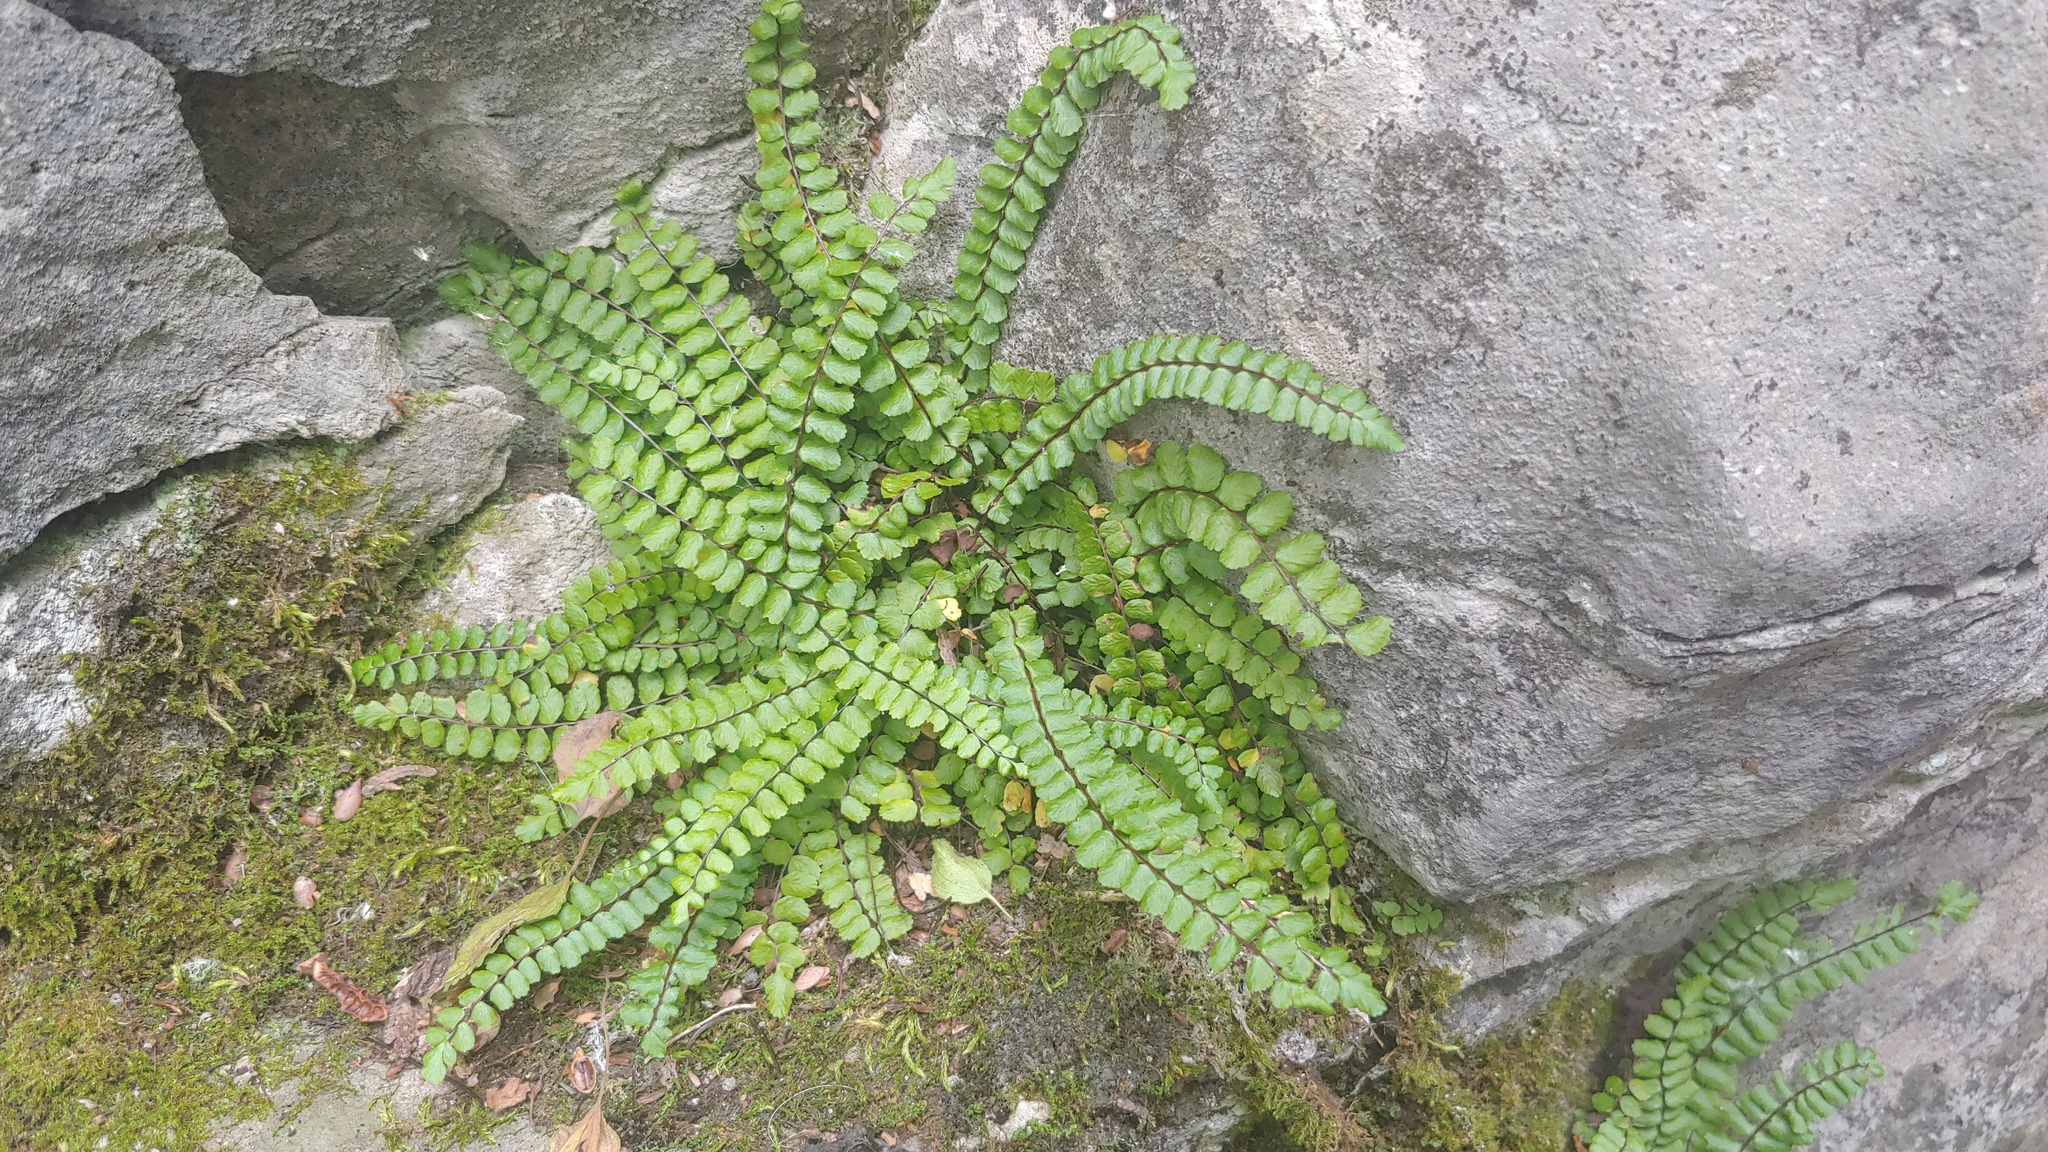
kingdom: Plantae
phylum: Tracheophyta
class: Polypodiopsida
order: Polypodiales
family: Aspleniaceae
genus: Asplenium
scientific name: Asplenium trichomanes
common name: Maidenhair spleenwort
